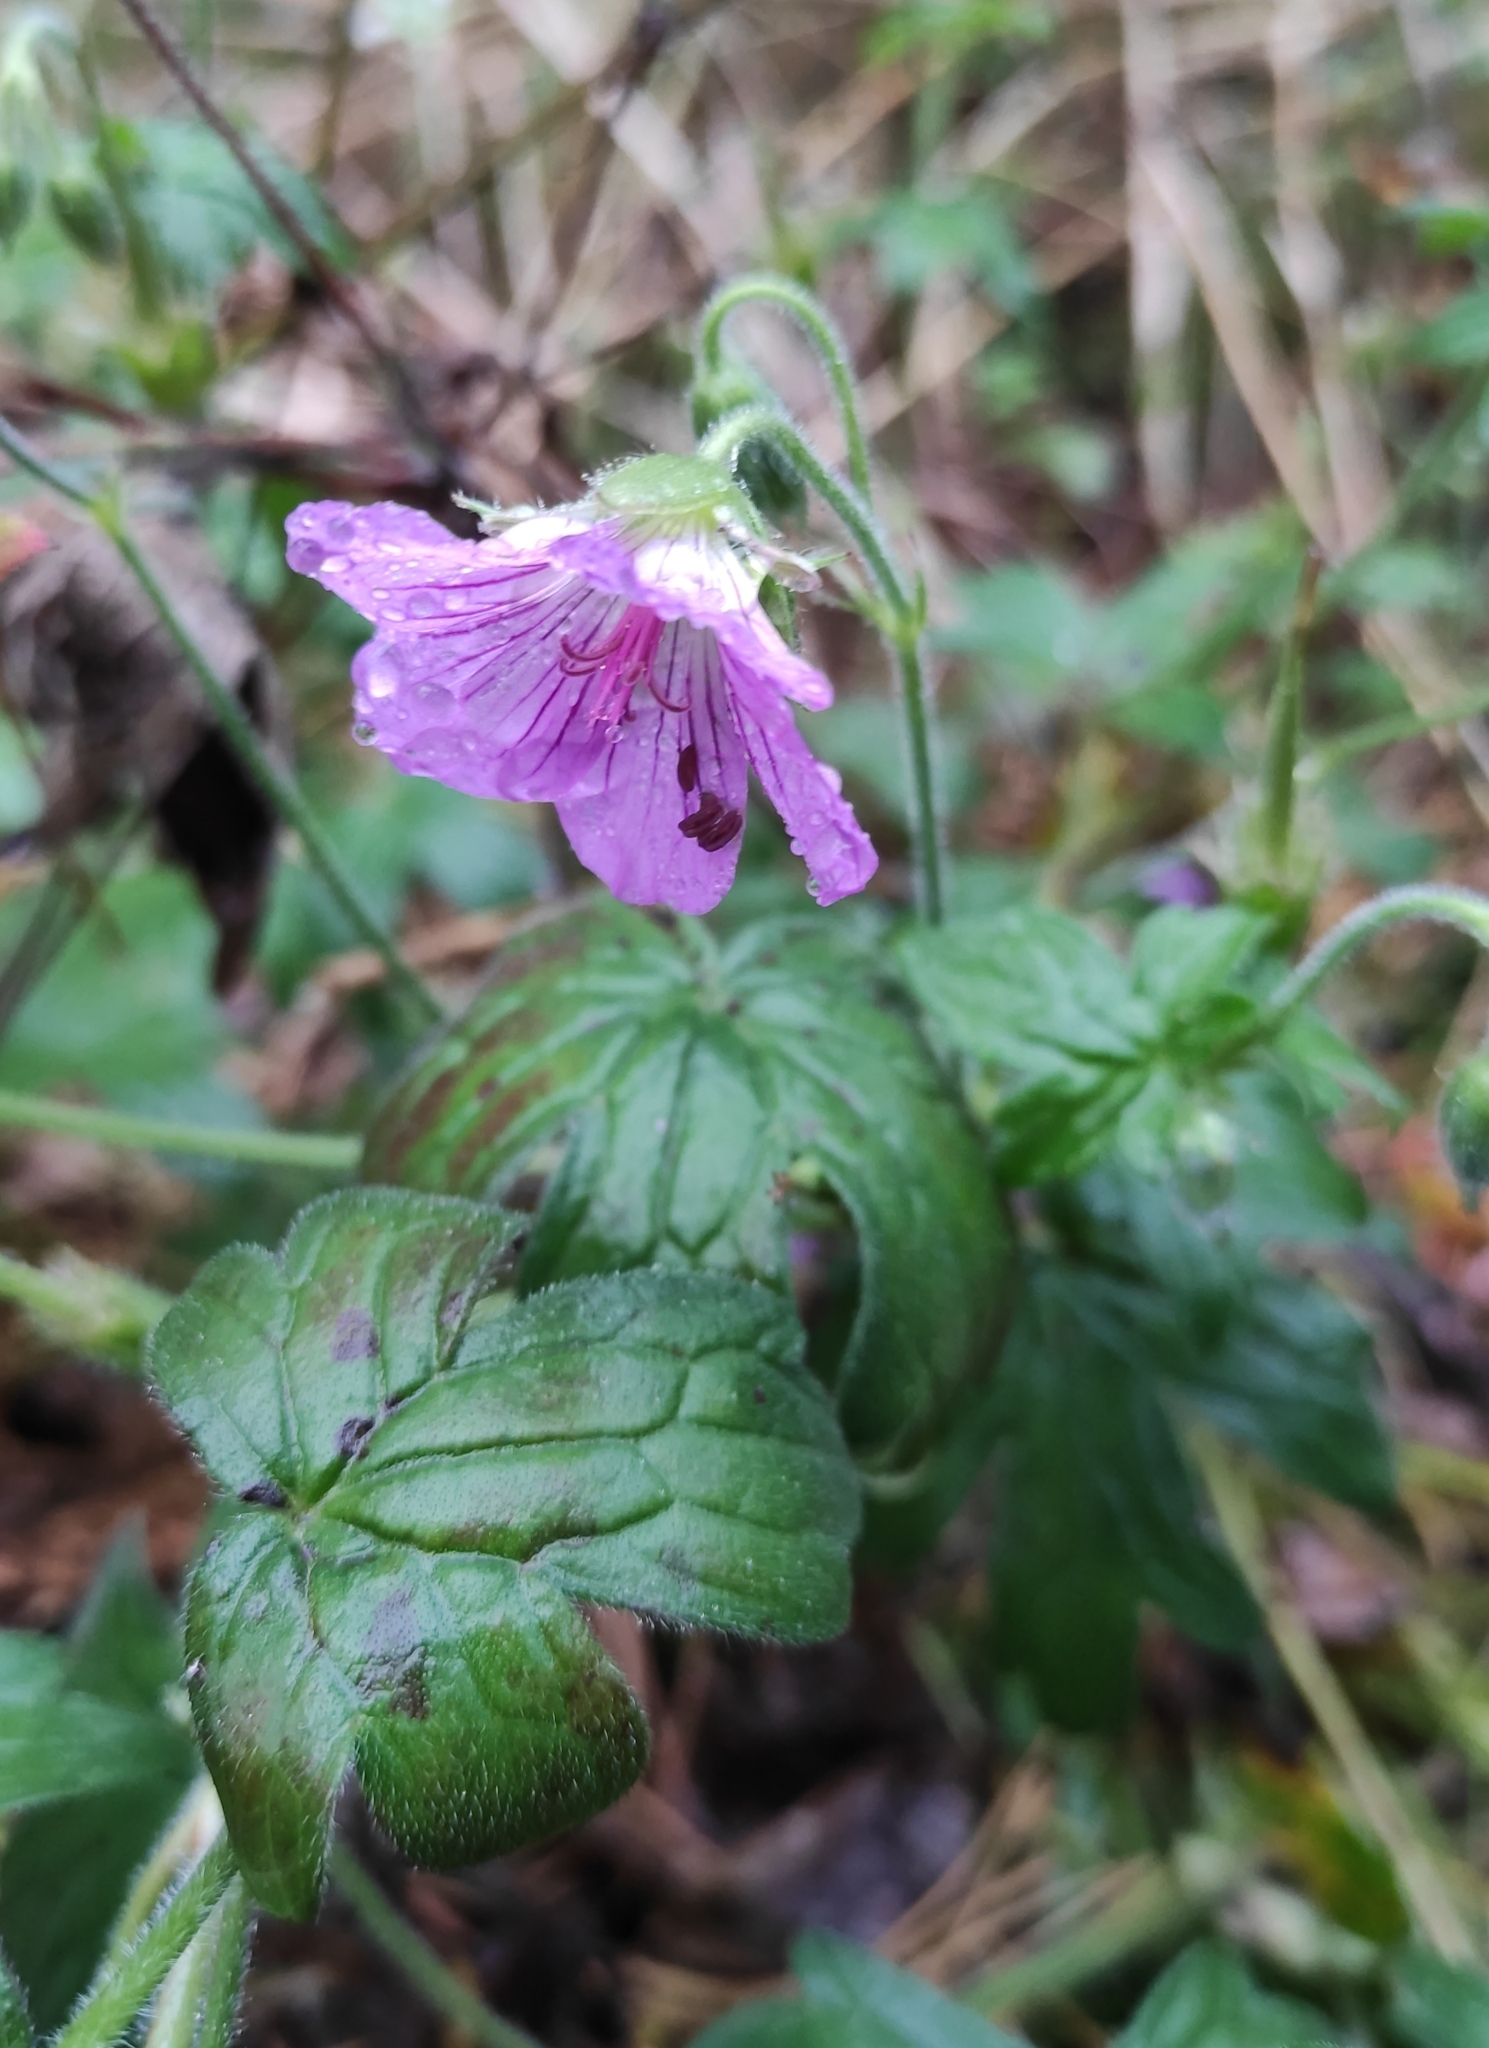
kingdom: Plantae
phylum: Tracheophyta
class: Magnoliopsida
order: Geraniales
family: Geraniaceae
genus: Geranium
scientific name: Geranium wlassovianum
